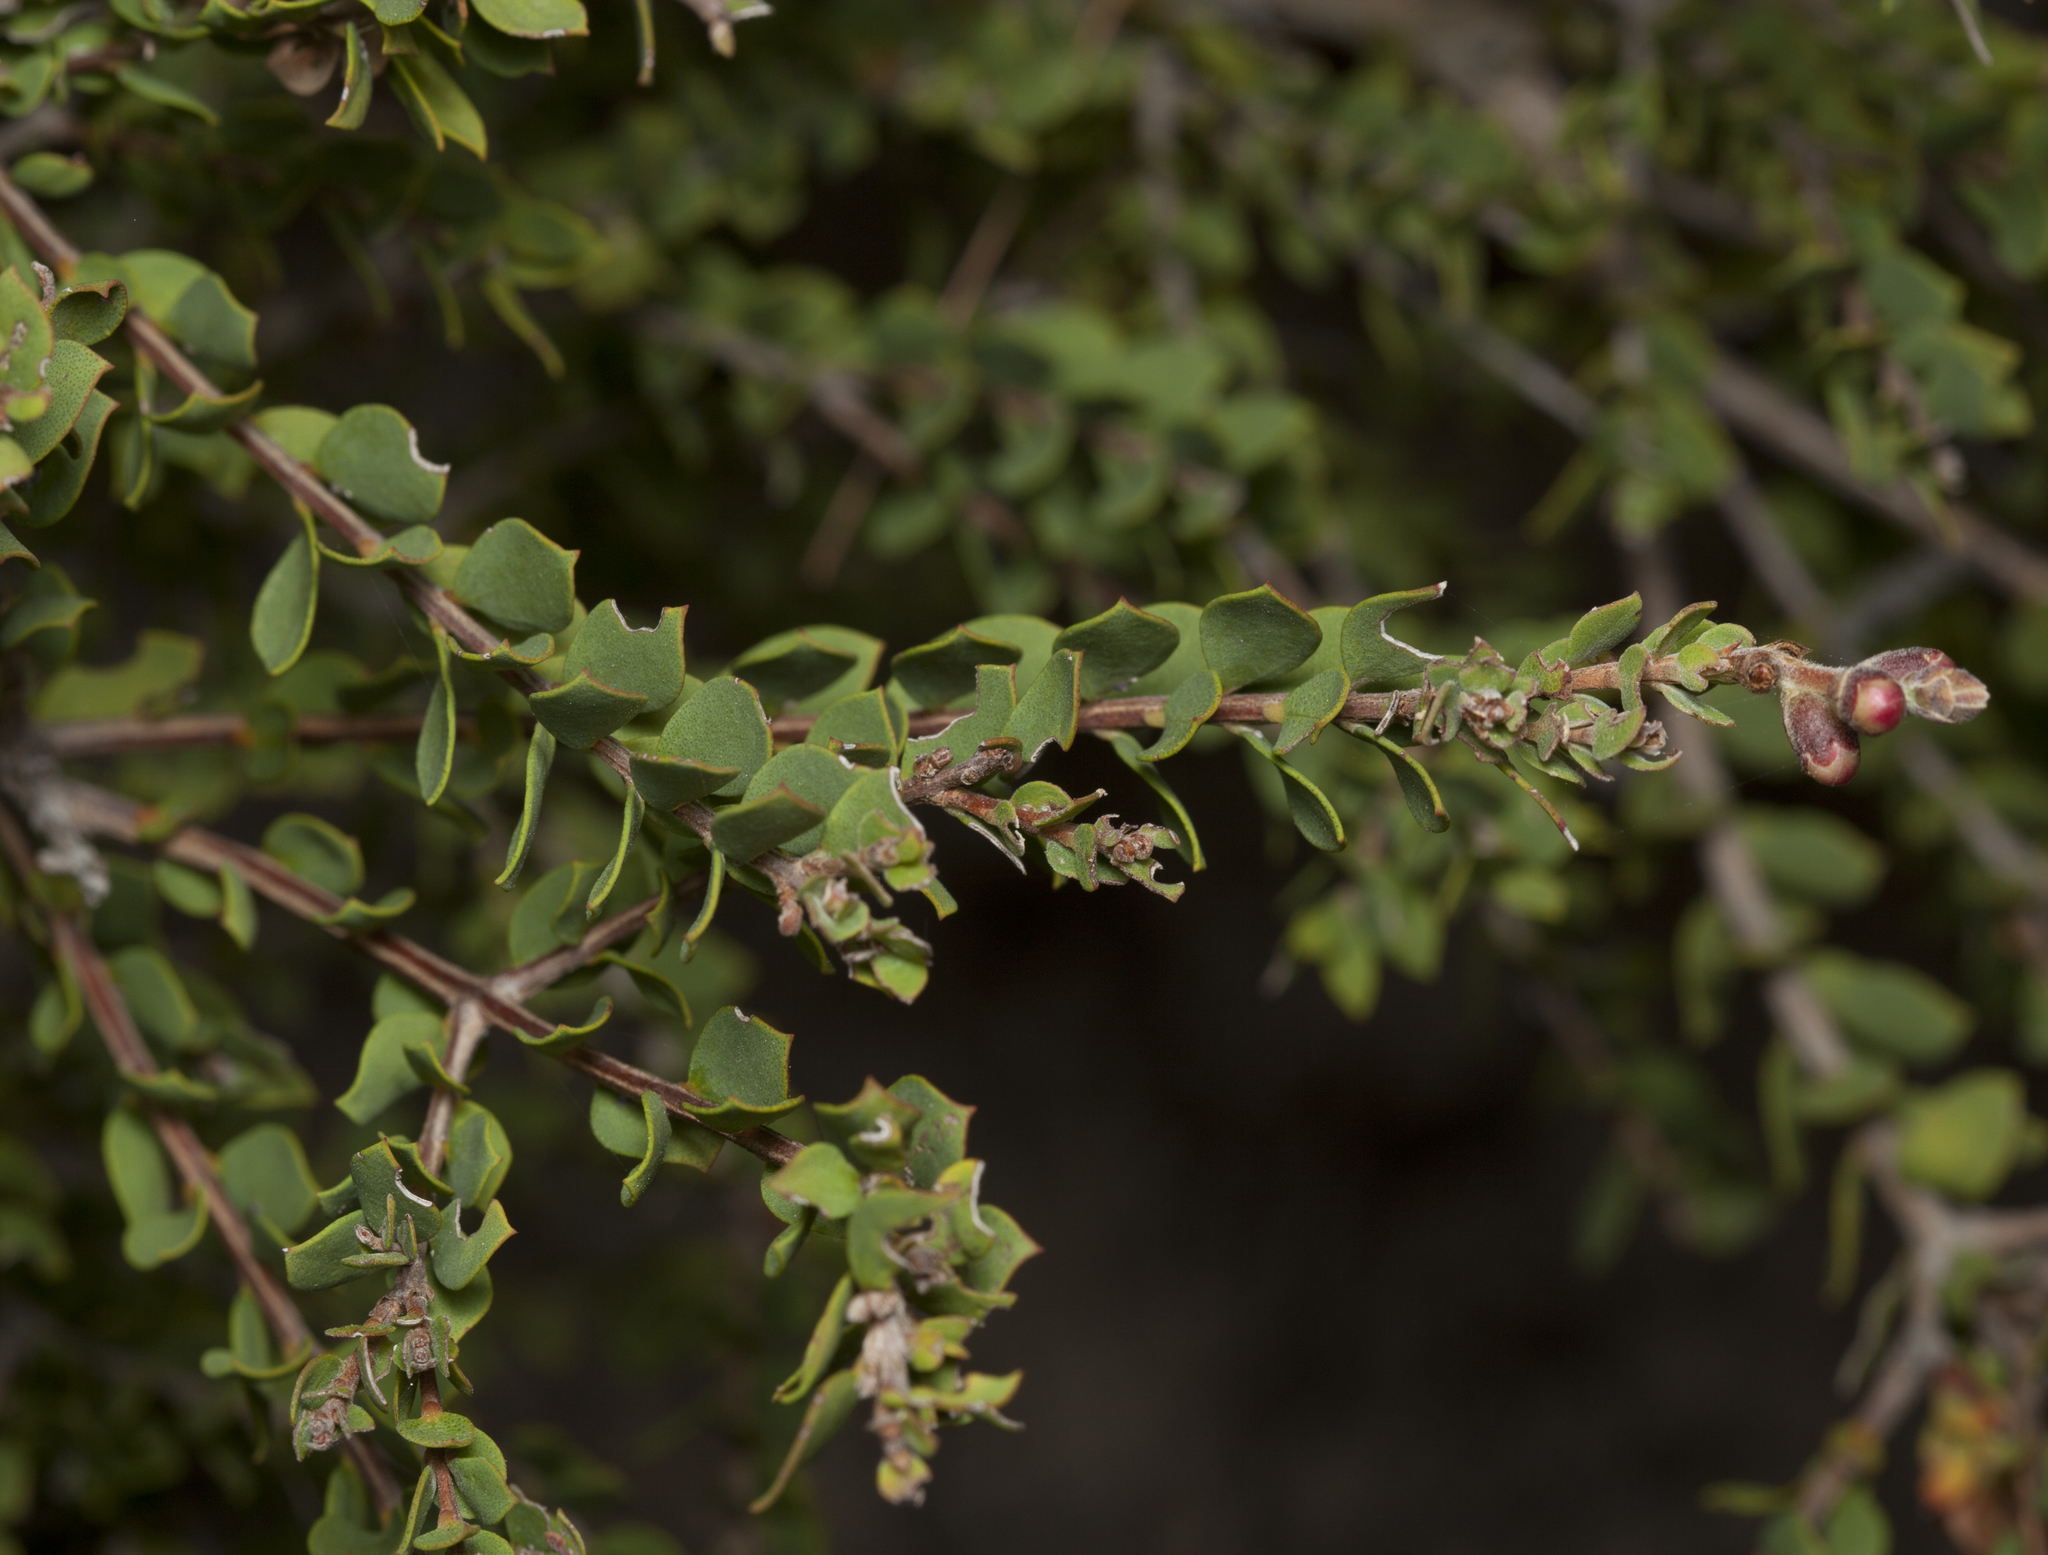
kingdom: Plantae
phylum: Tracheophyta
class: Magnoliopsida
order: Myrtales
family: Myrtaceae
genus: Melaleuca
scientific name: Melaleuca cheelii
